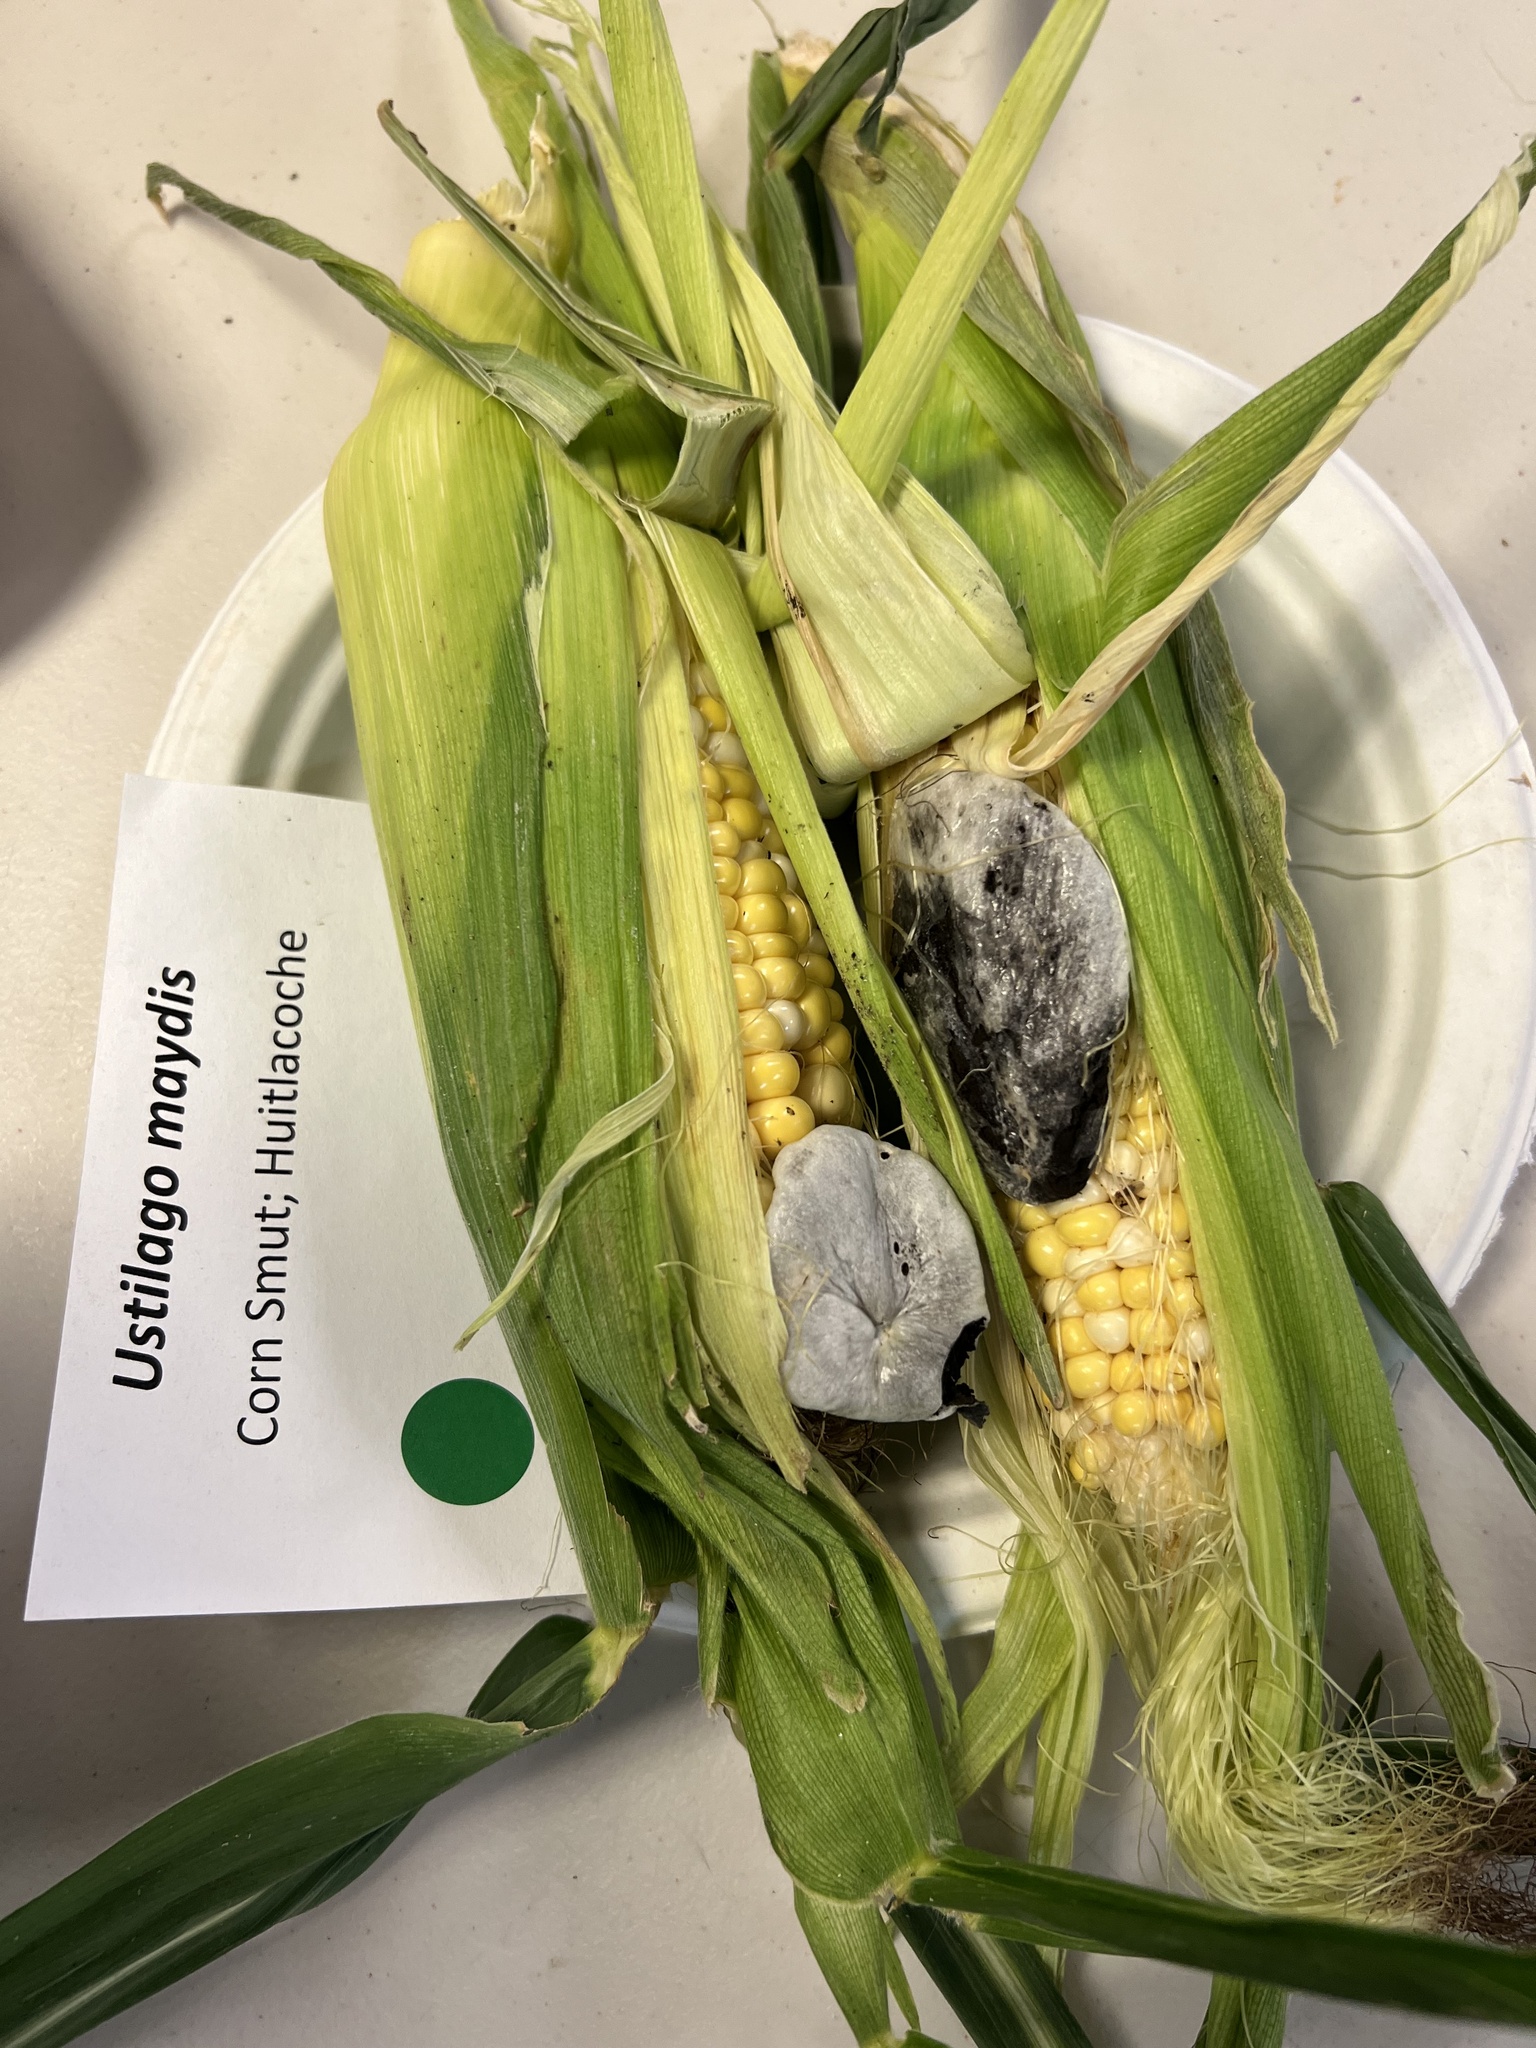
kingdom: Fungi
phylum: Basidiomycota
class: Ustilaginomycetes
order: Ustilaginales
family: Ustilaginaceae
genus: Mycosarcoma
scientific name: Mycosarcoma maydis
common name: Corn smut
